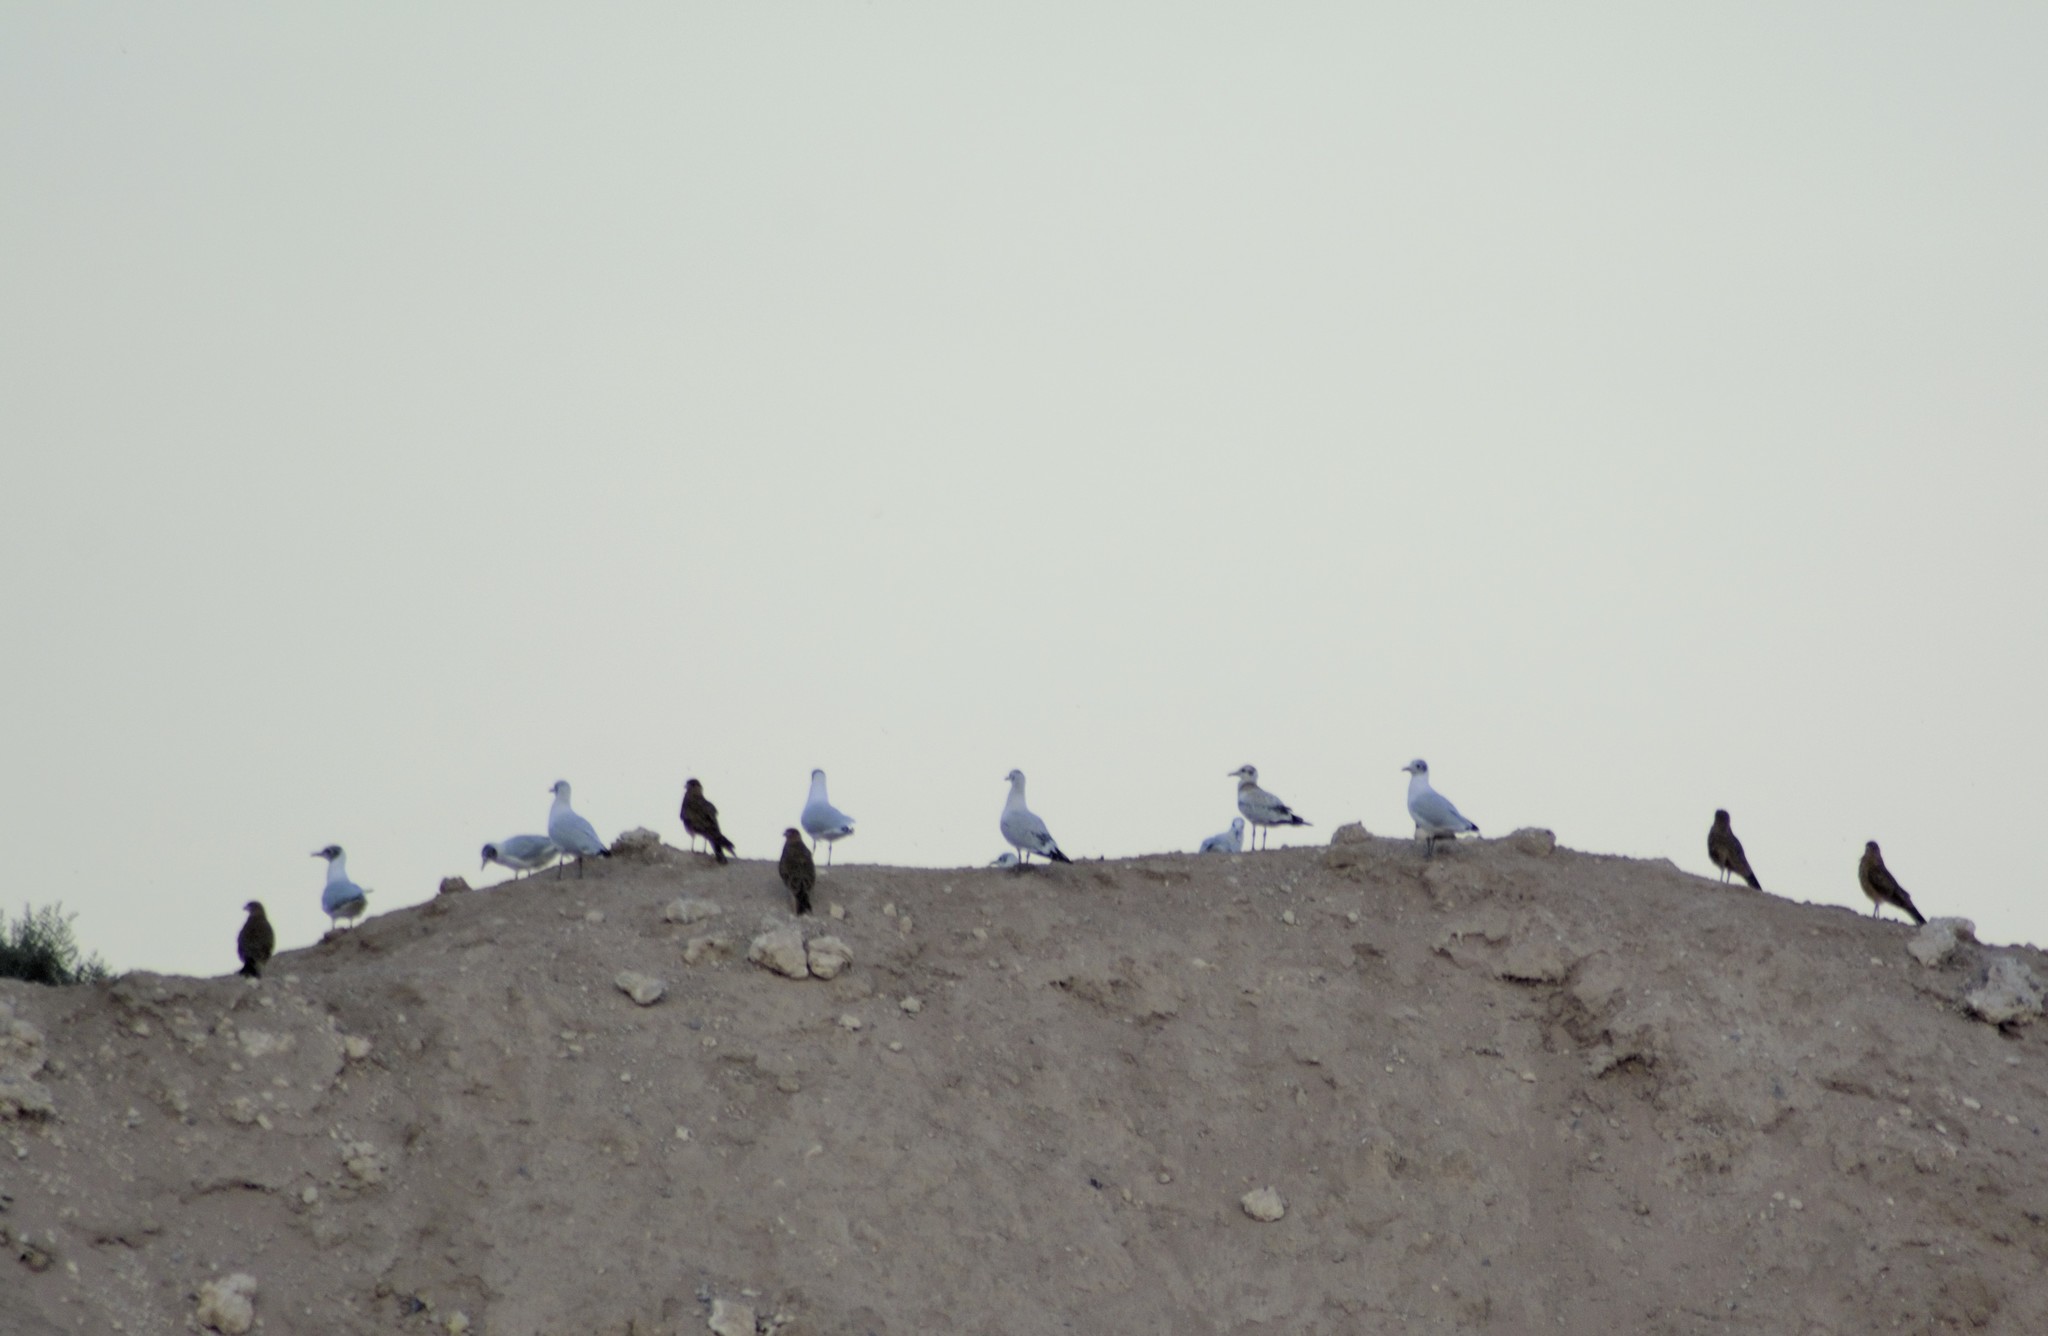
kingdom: Animalia
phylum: Chordata
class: Aves
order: Charadriiformes
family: Laridae
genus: Chroicocephalus
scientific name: Chroicocephalus maculipennis
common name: Brown-hooded gull
